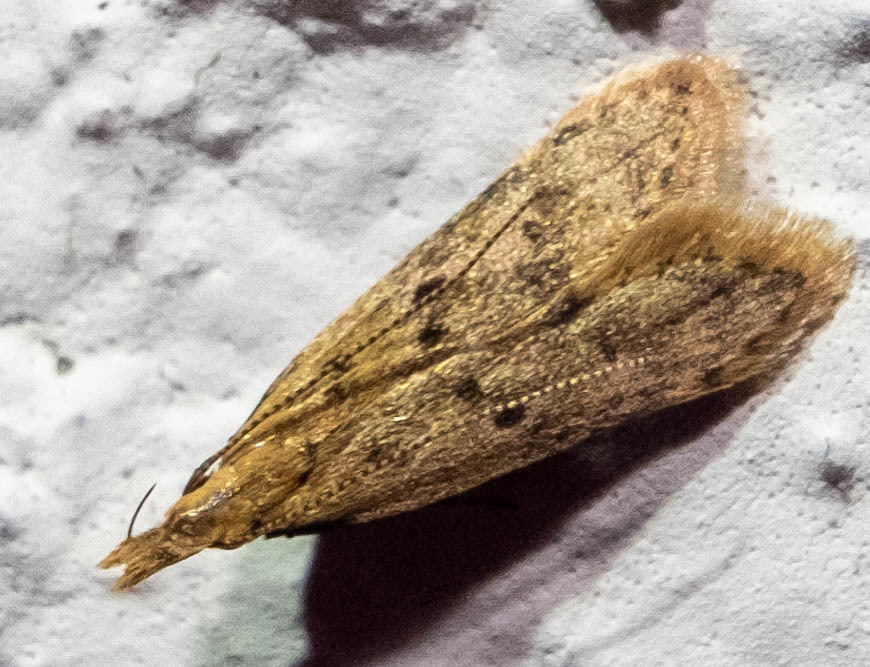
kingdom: Animalia
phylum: Arthropoda
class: Insecta
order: Lepidoptera
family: Gelechiidae
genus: Dichomeris
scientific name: Dichomeris punctipennella
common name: Many-spotted dichomeris moth
